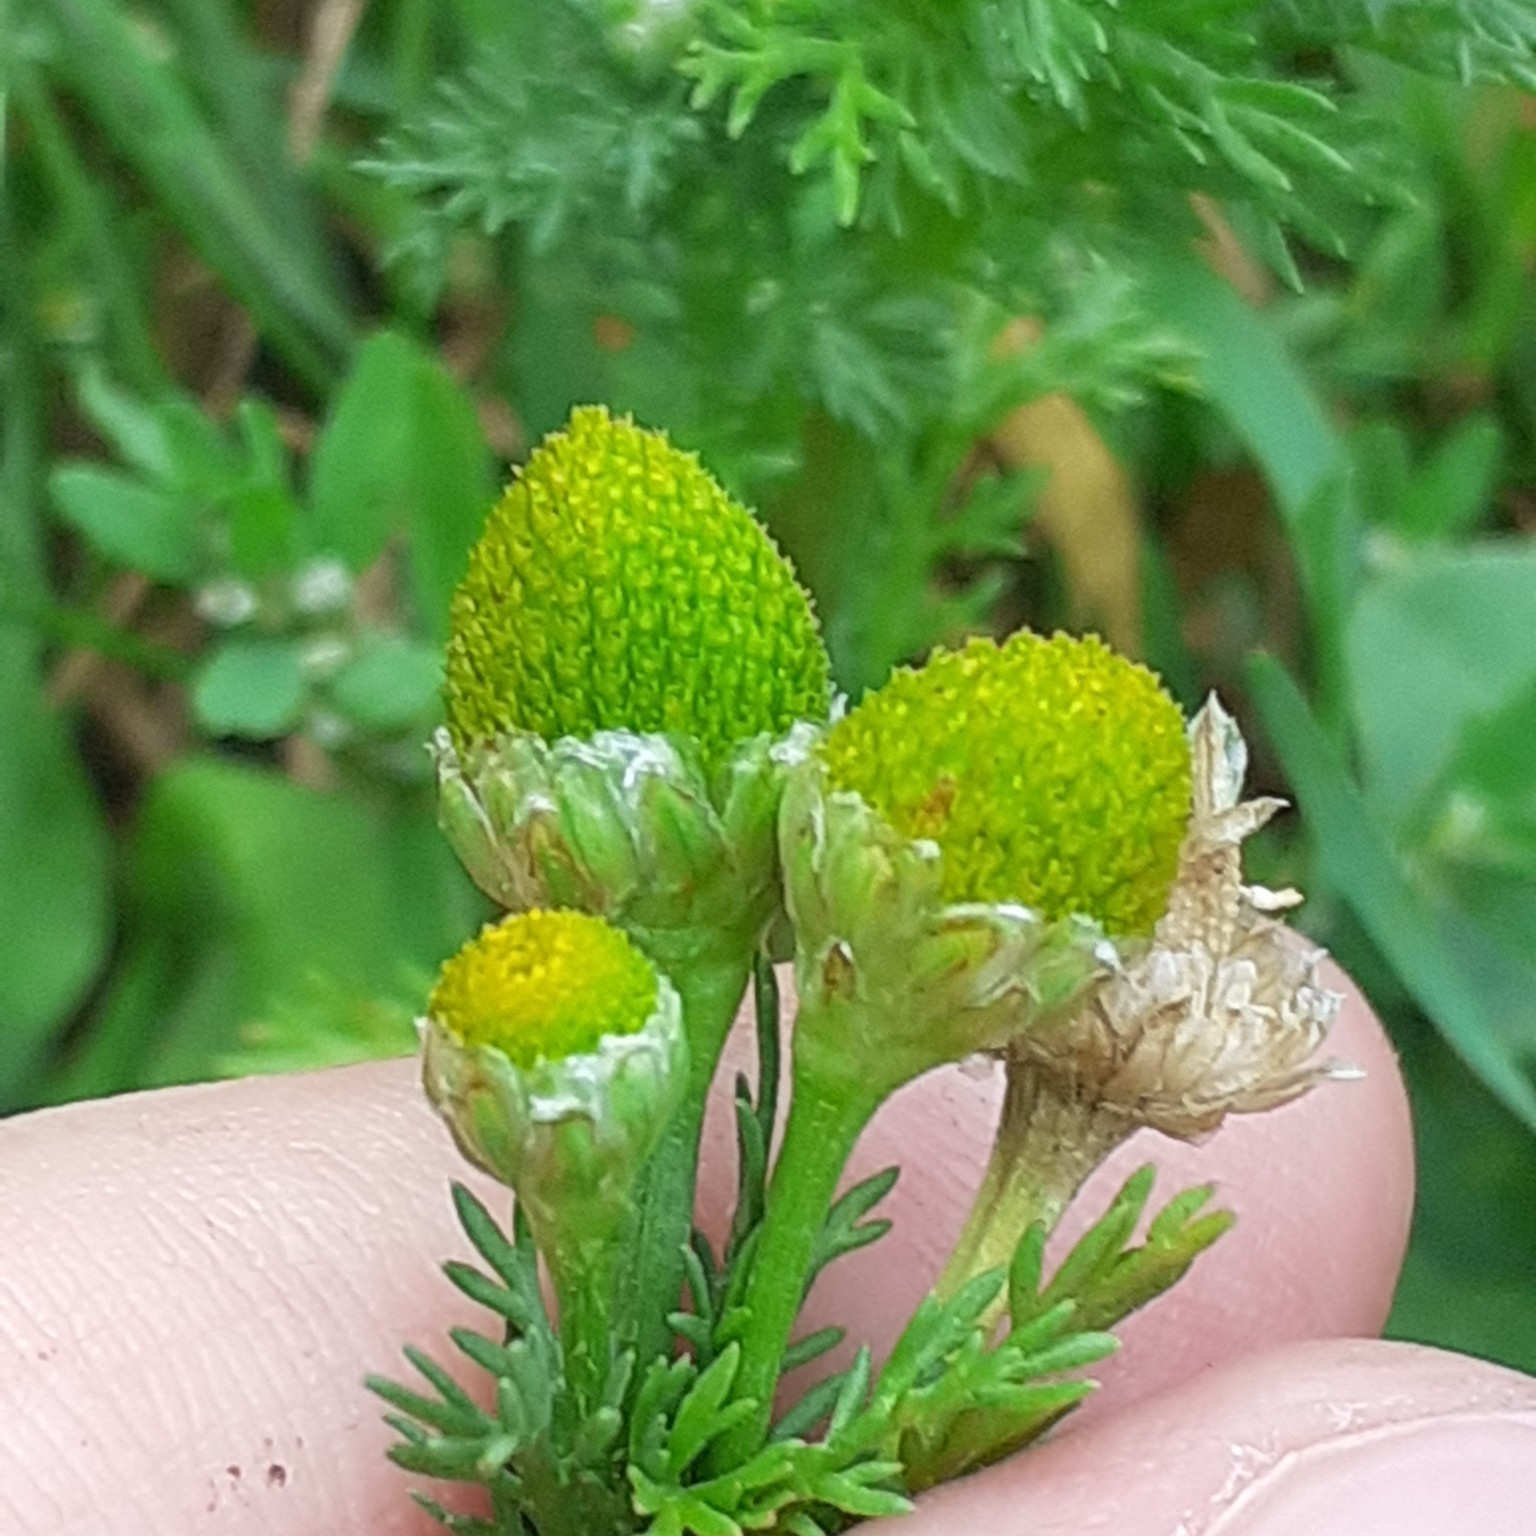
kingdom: Plantae
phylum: Tracheophyta
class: Magnoliopsida
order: Asterales
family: Asteraceae
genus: Matricaria
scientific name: Matricaria discoidea
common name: Disc mayweed
